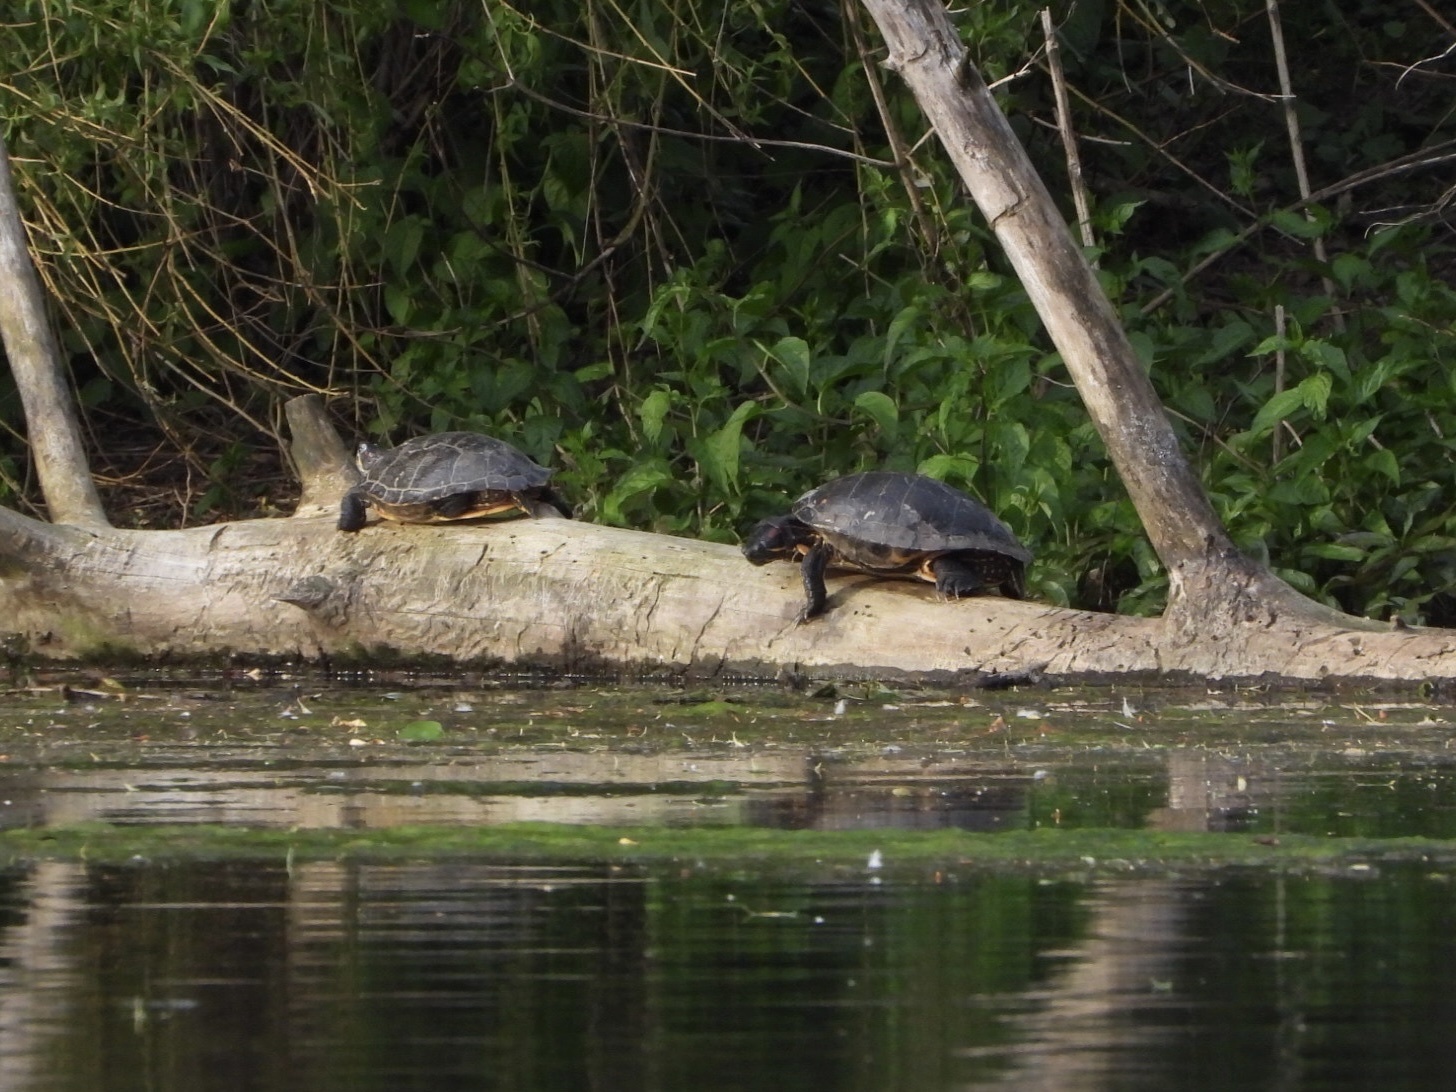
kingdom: Animalia
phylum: Chordata
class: Testudines
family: Emydidae
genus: Trachemys
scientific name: Trachemys scripta
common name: Slider
